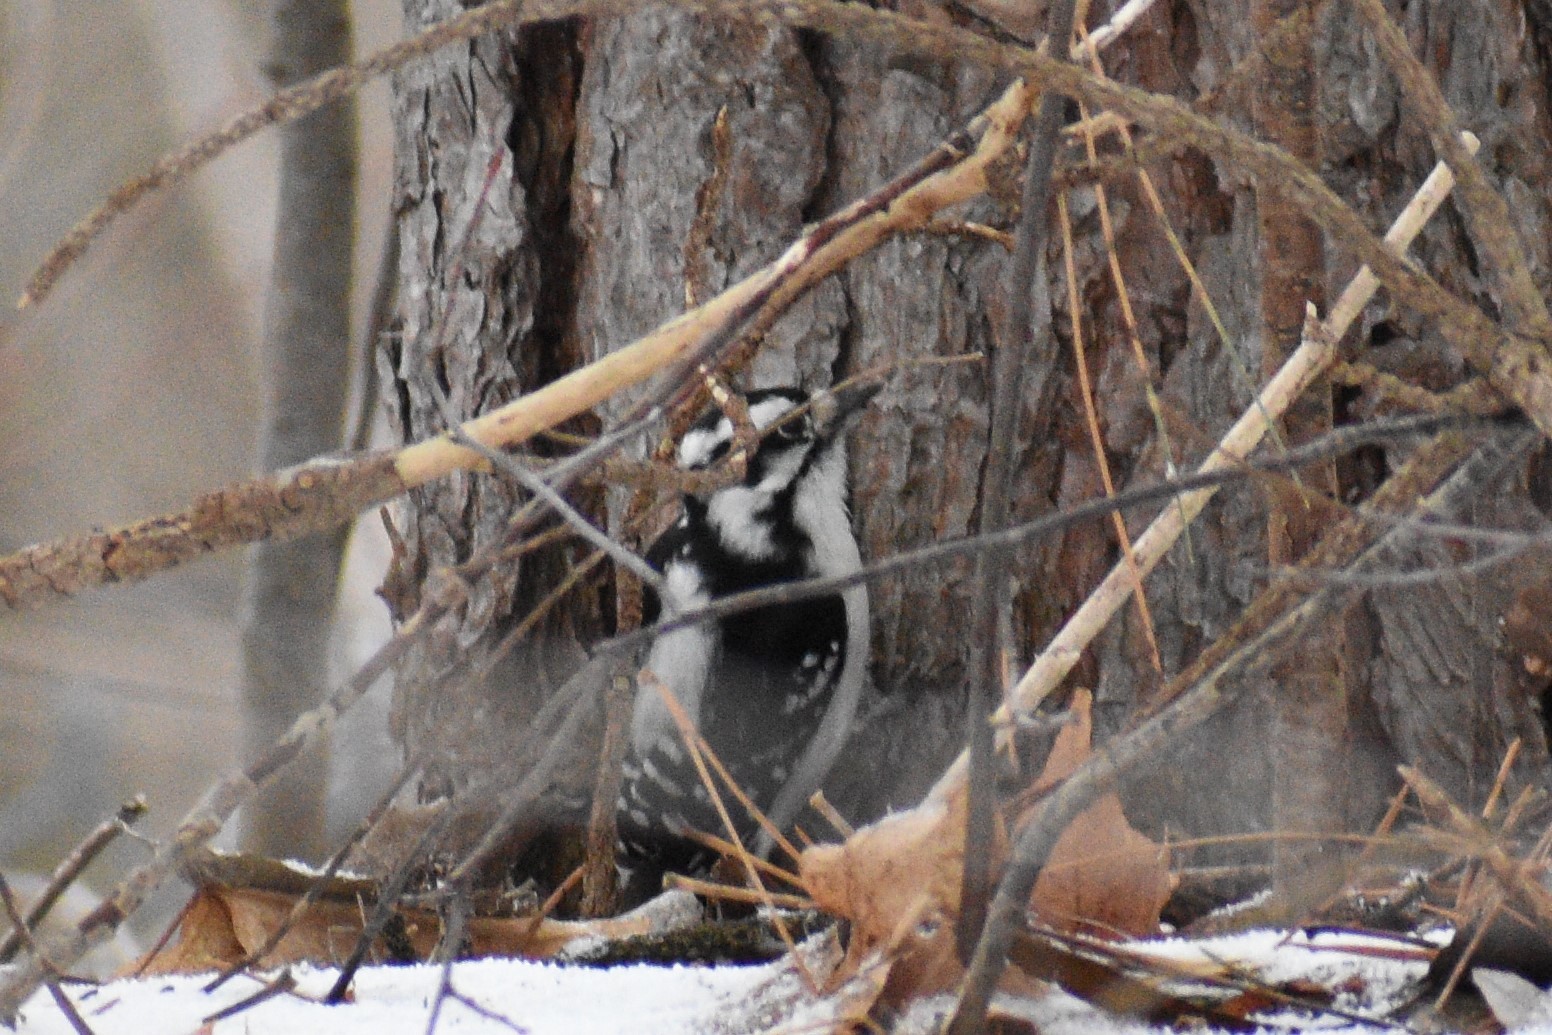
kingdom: Animalia
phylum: Chordata
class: Aves
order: Piciformes
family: Picidae
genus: Dryobates
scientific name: Dryobates pubescens
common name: Downy woodpecker
